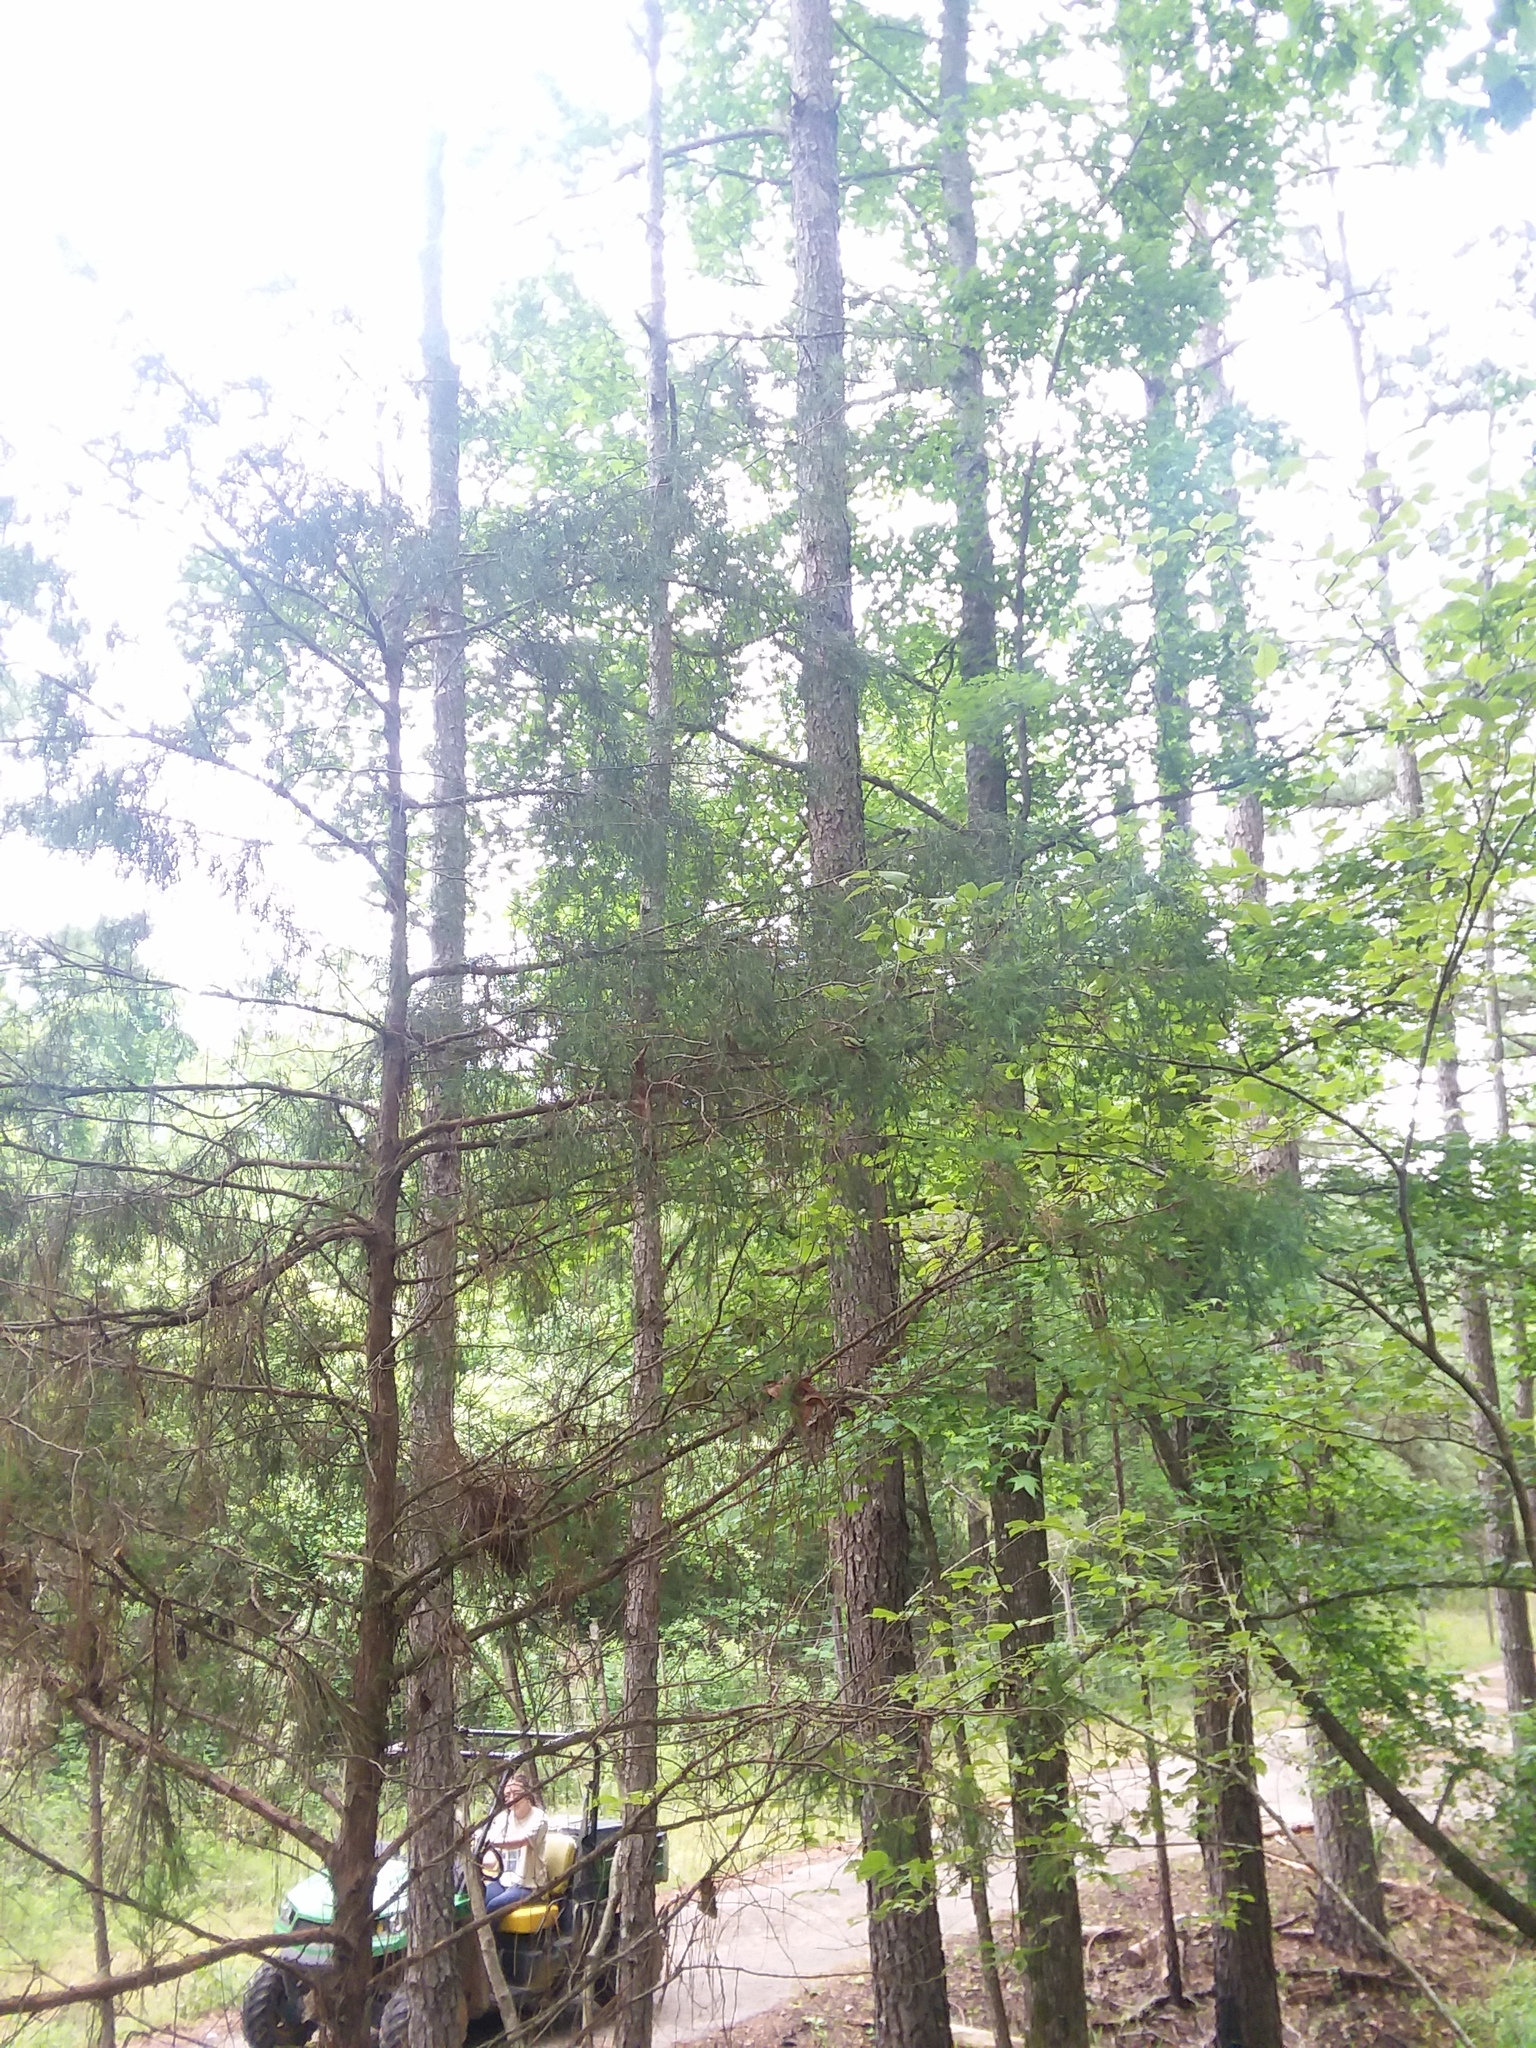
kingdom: Plantae
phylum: Tracheophyta
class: Pinopsida
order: Pinales
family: Cupressaceae
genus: Juniperus
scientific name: Juniperus virginiana
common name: Red juniper
